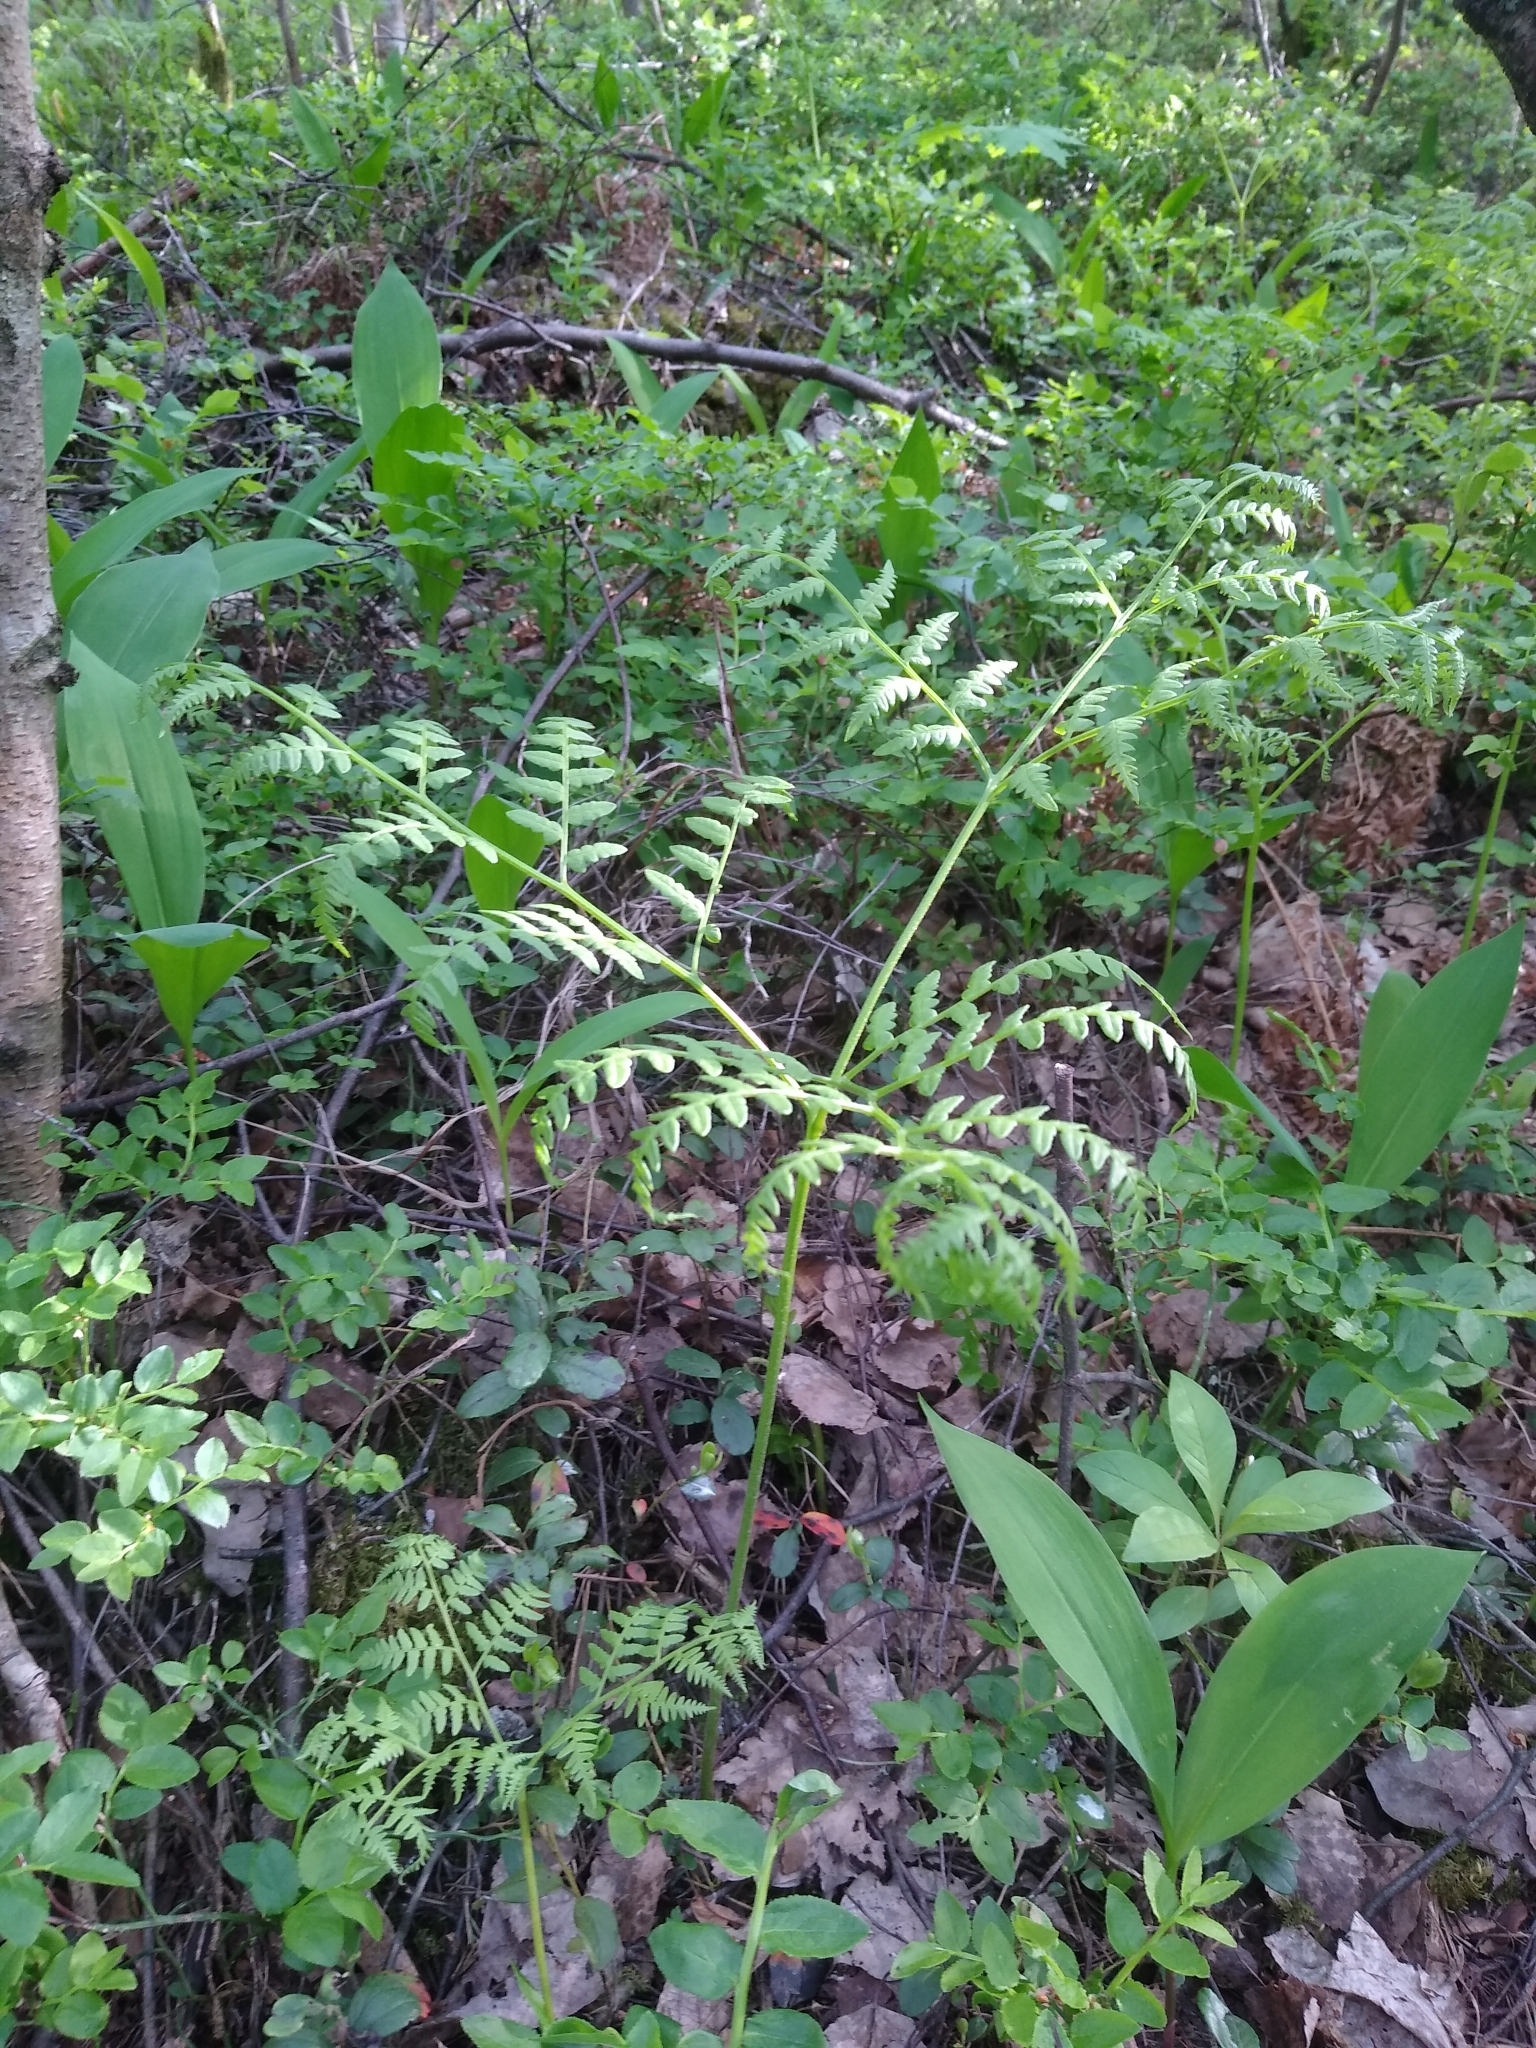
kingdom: Plantae
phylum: Tracheophyta
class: Polypodiopsida
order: Polypodiales
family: Dennstaedtiaceae
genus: Pteridium
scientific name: Pteridium aquilinum
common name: Bracken
